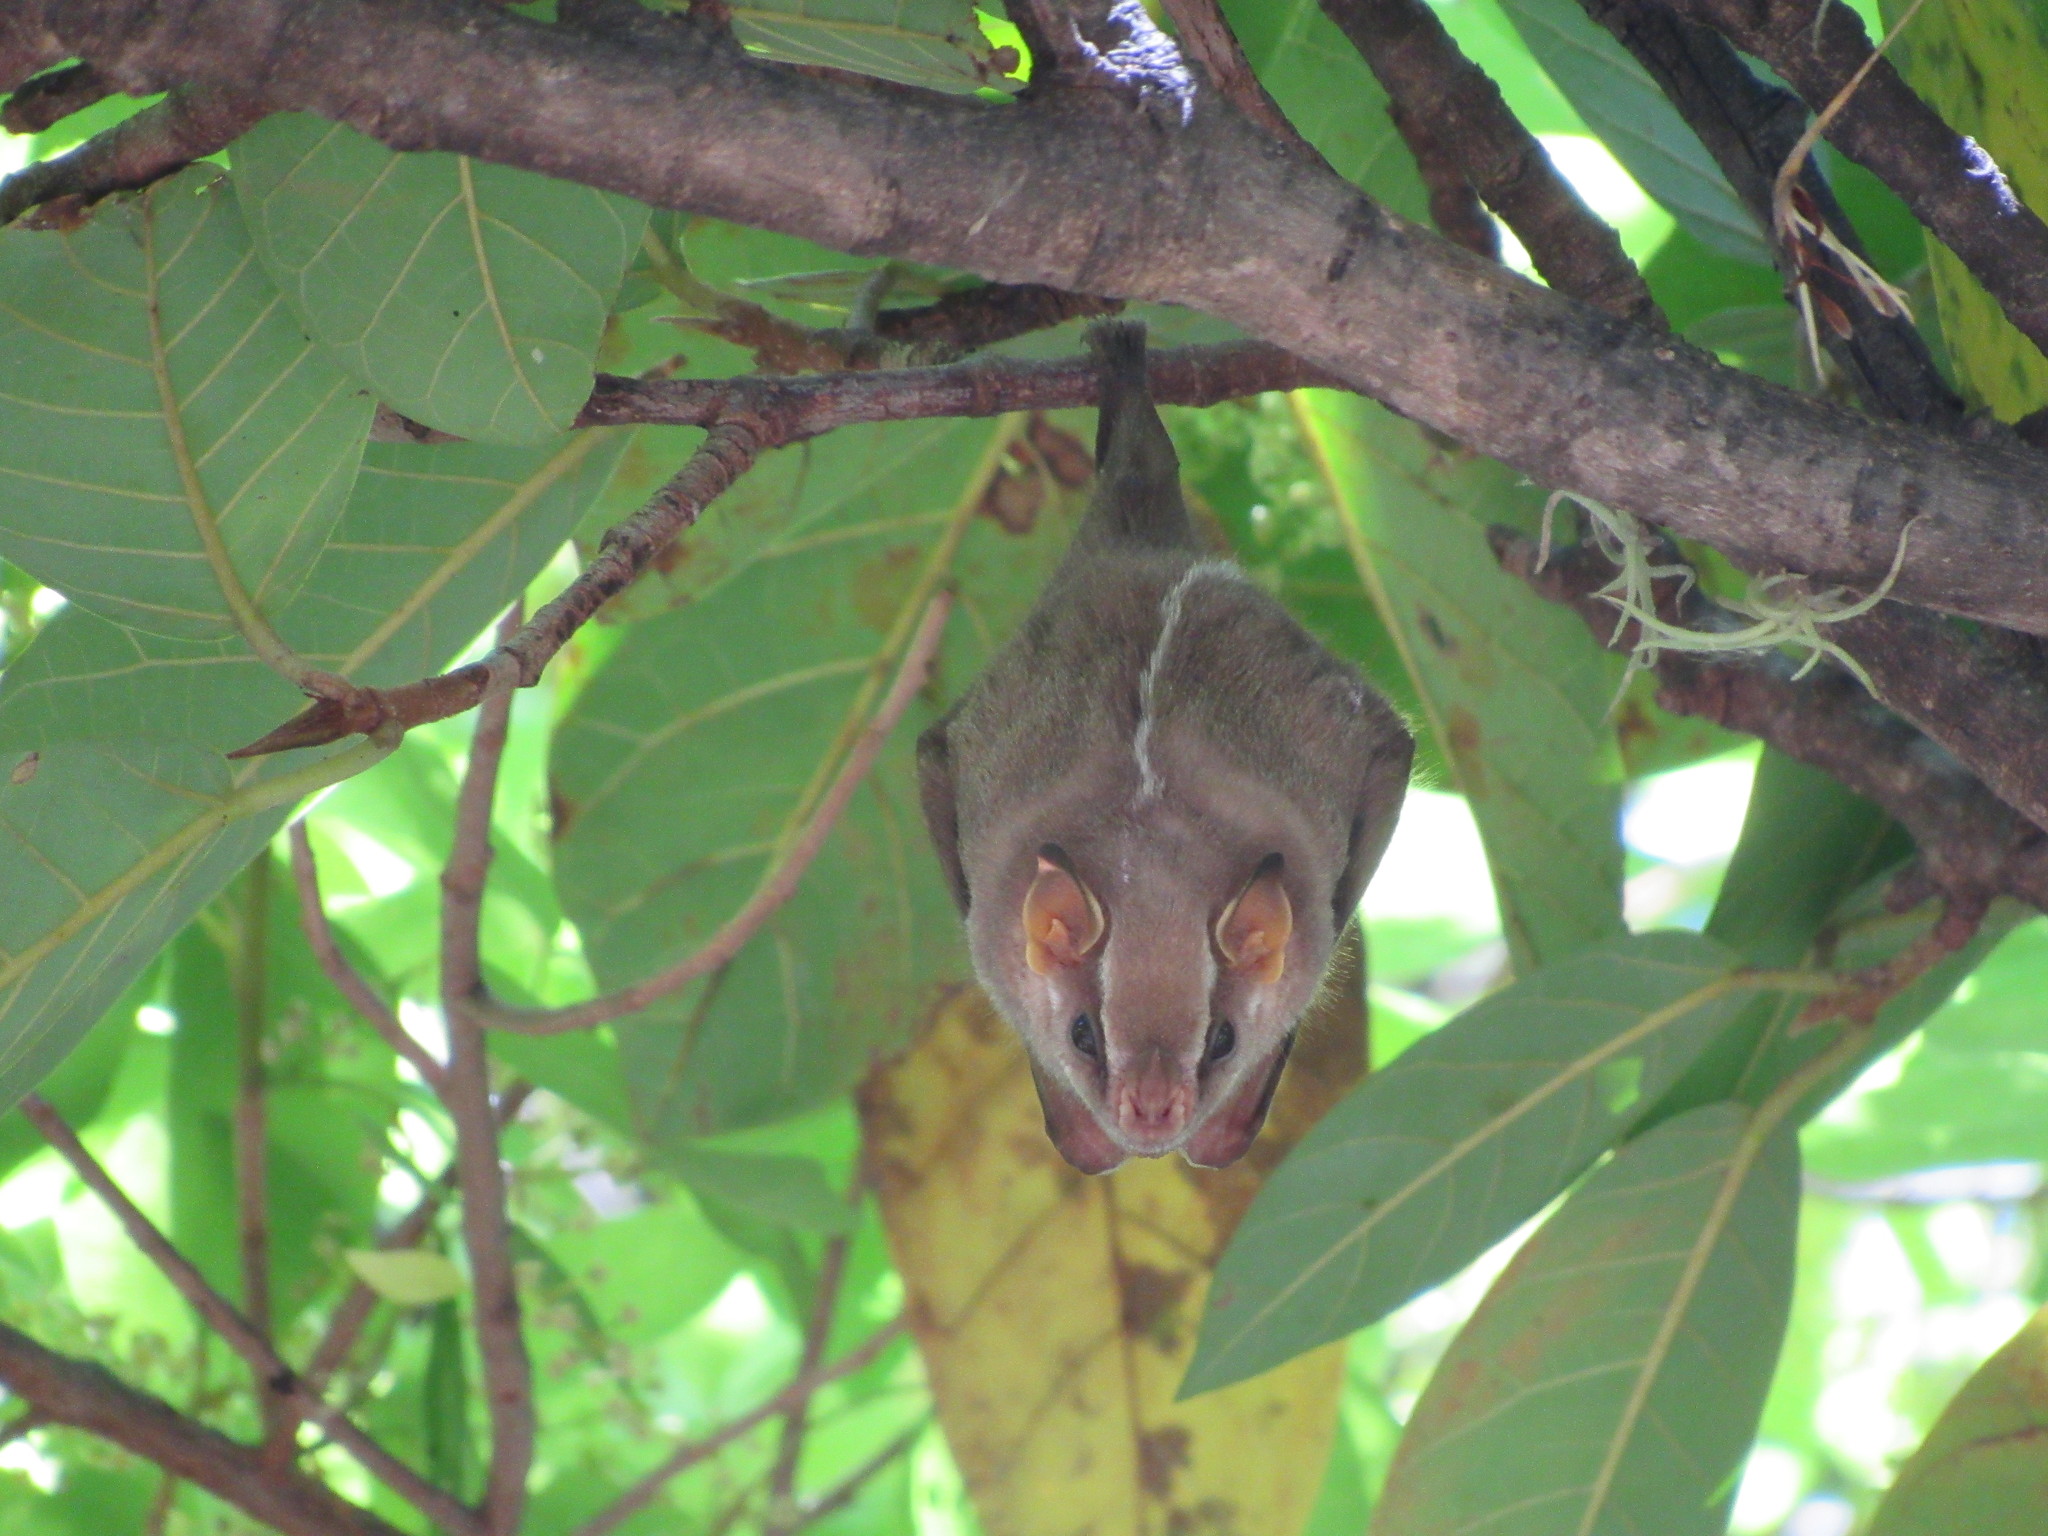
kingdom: Animalia
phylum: Chordata
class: Mammalia
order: Chiroptera
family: Phyllostomidae
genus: Chiroderma
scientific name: Chiroderma salvini
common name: Salvin's big-eyed bat
